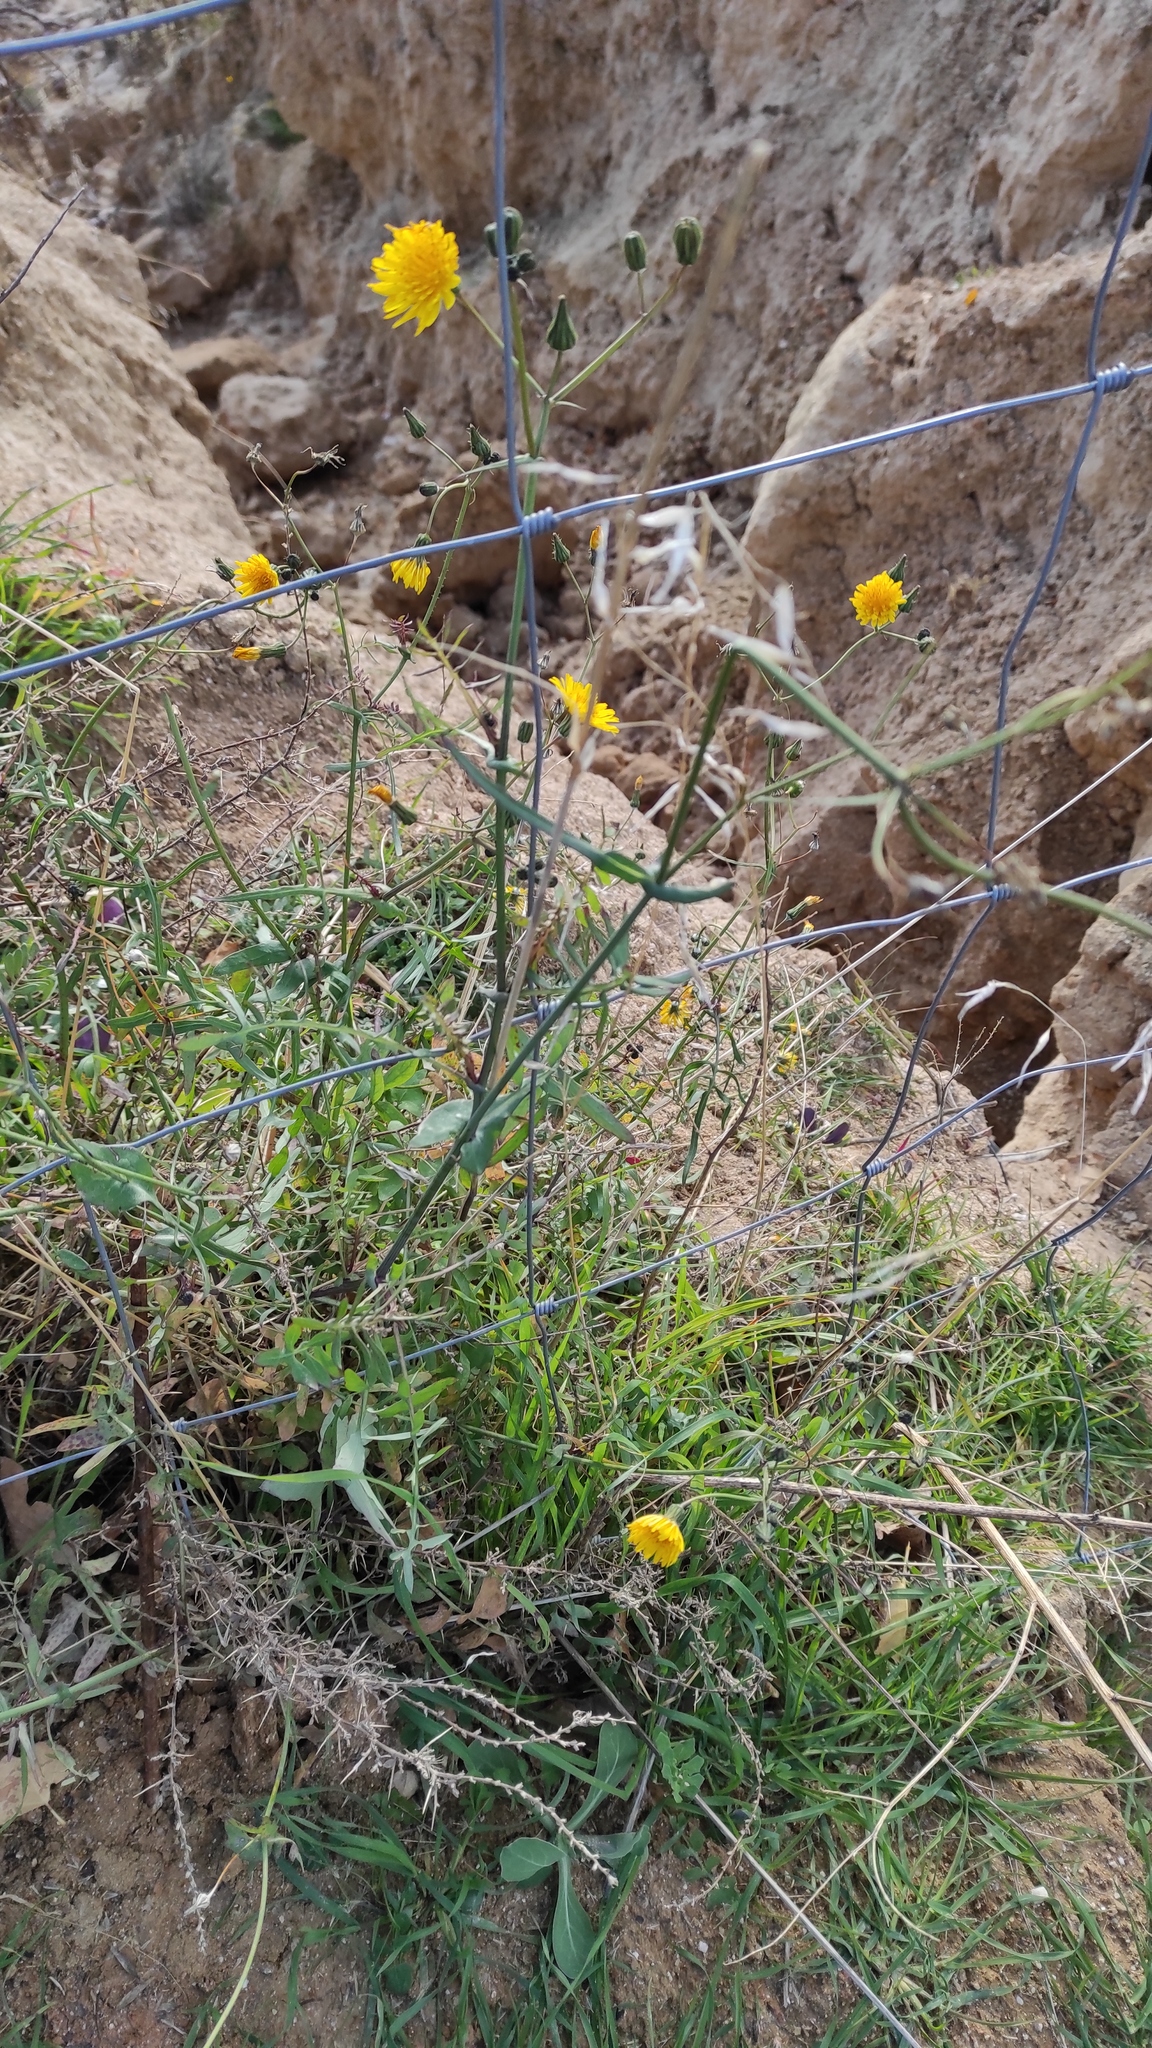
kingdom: Plantae
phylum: Tracheophyta
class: Magnoliopsida
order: Asterales
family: Asteraceae
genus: Sonchus
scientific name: Sonchus tenerrimus
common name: Clammy sowthistle
